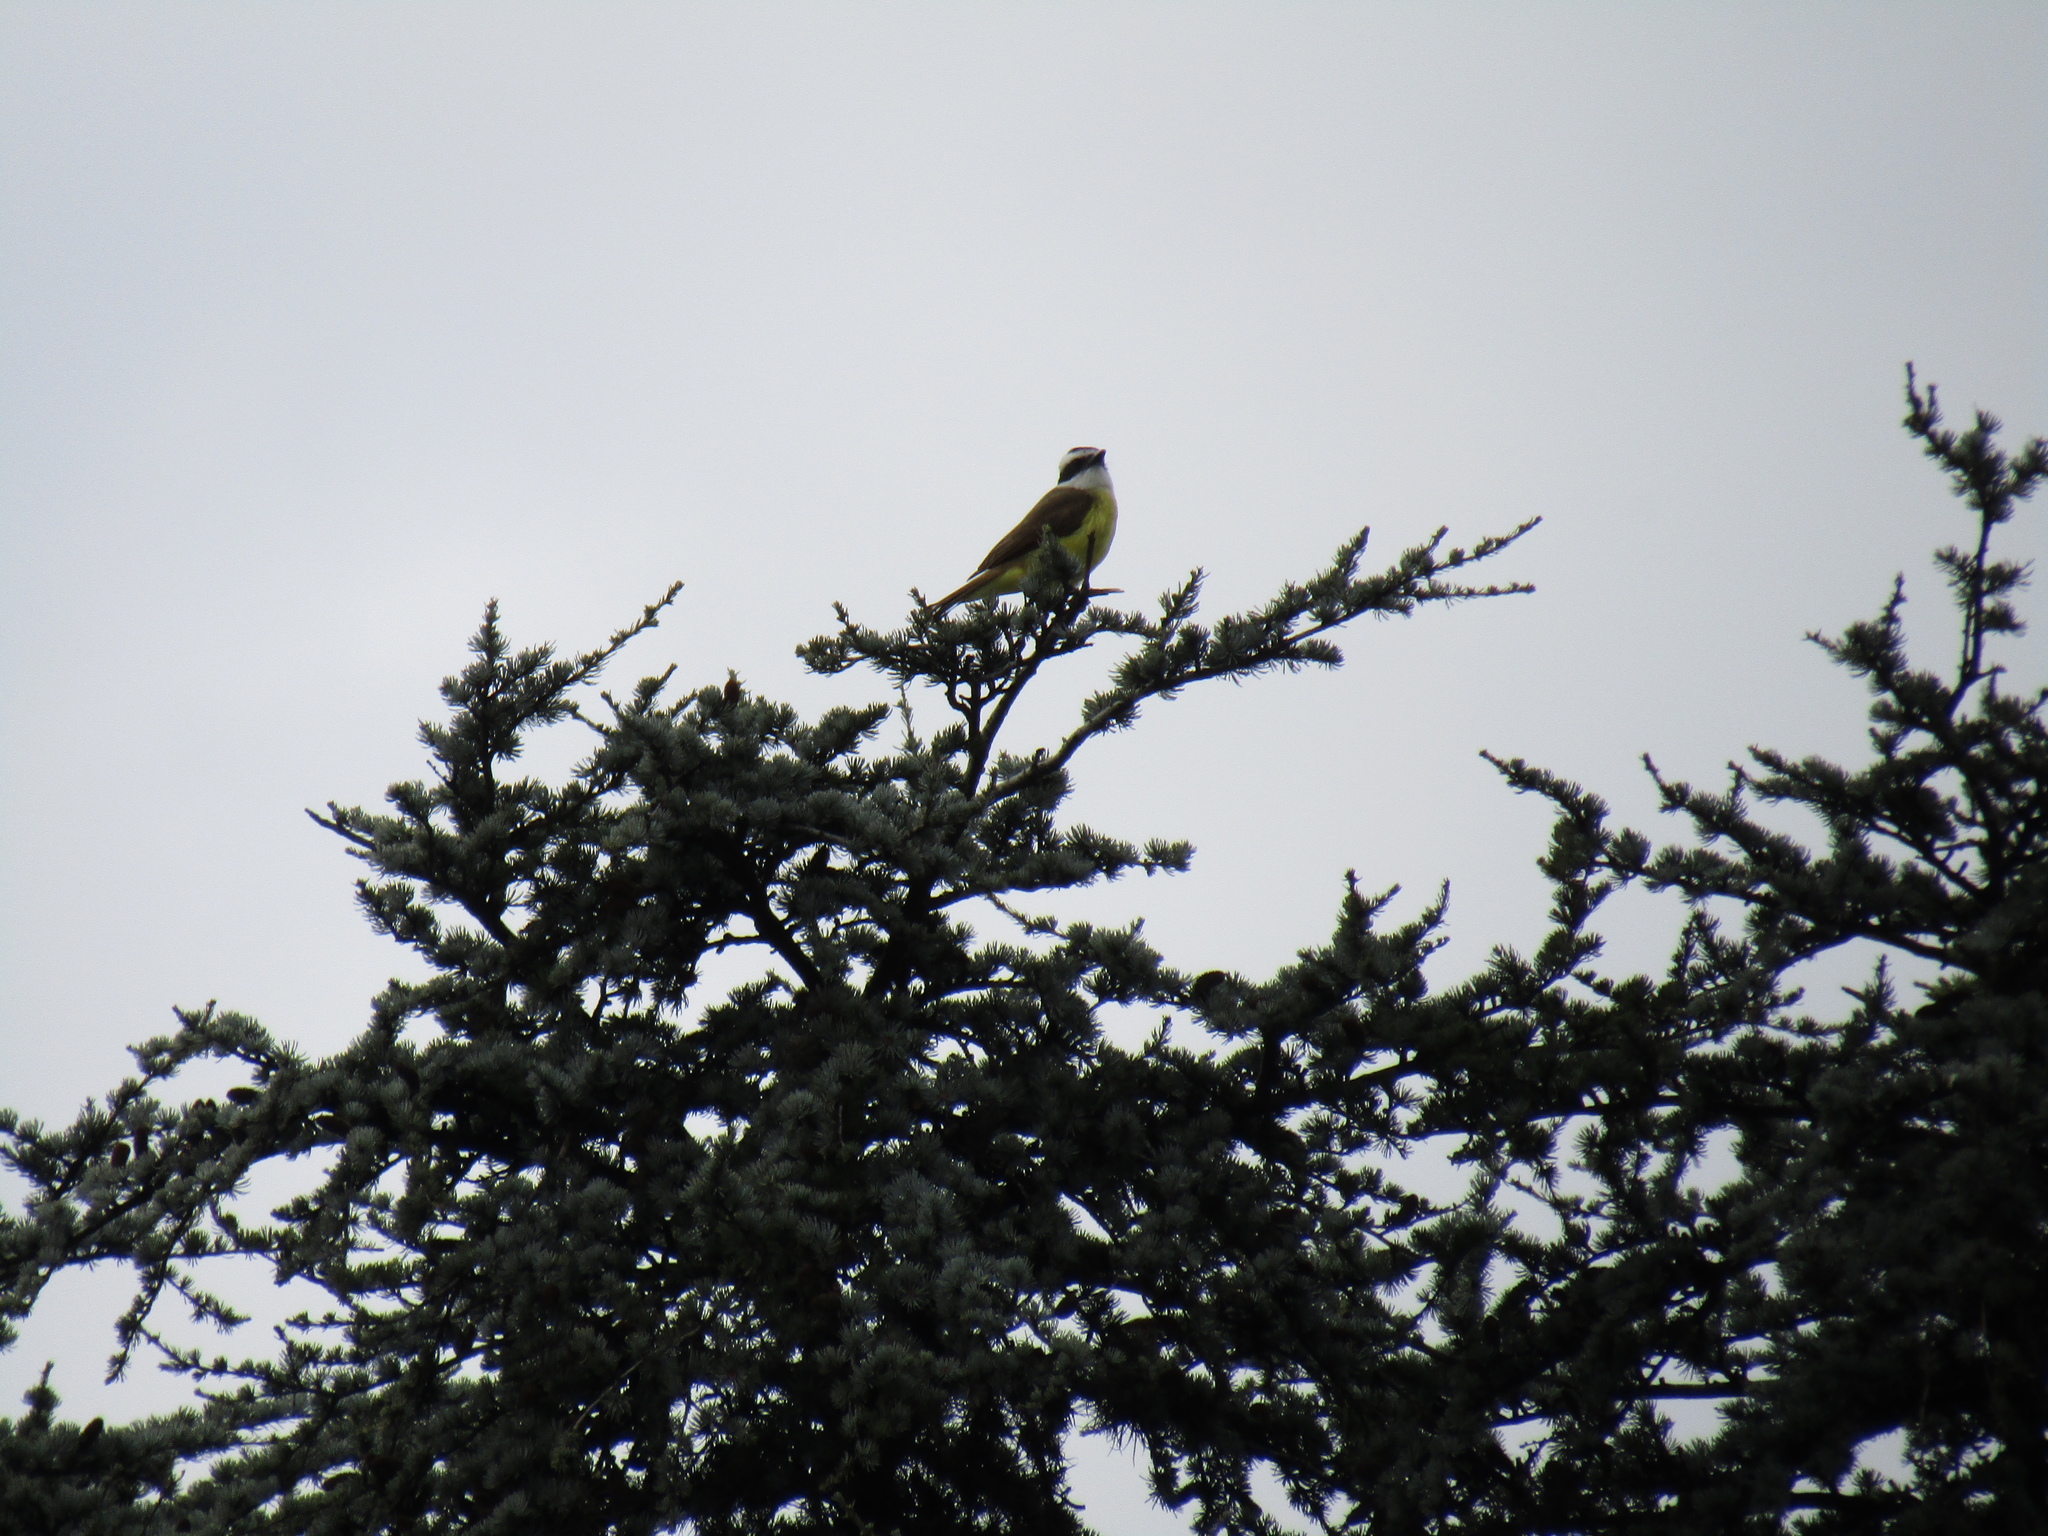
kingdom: Animalia
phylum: Chordata
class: Aves
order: Passeriformes
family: Tyrannidae
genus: Pitangus
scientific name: Pitangus sulphuratus
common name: Great kiskadee
